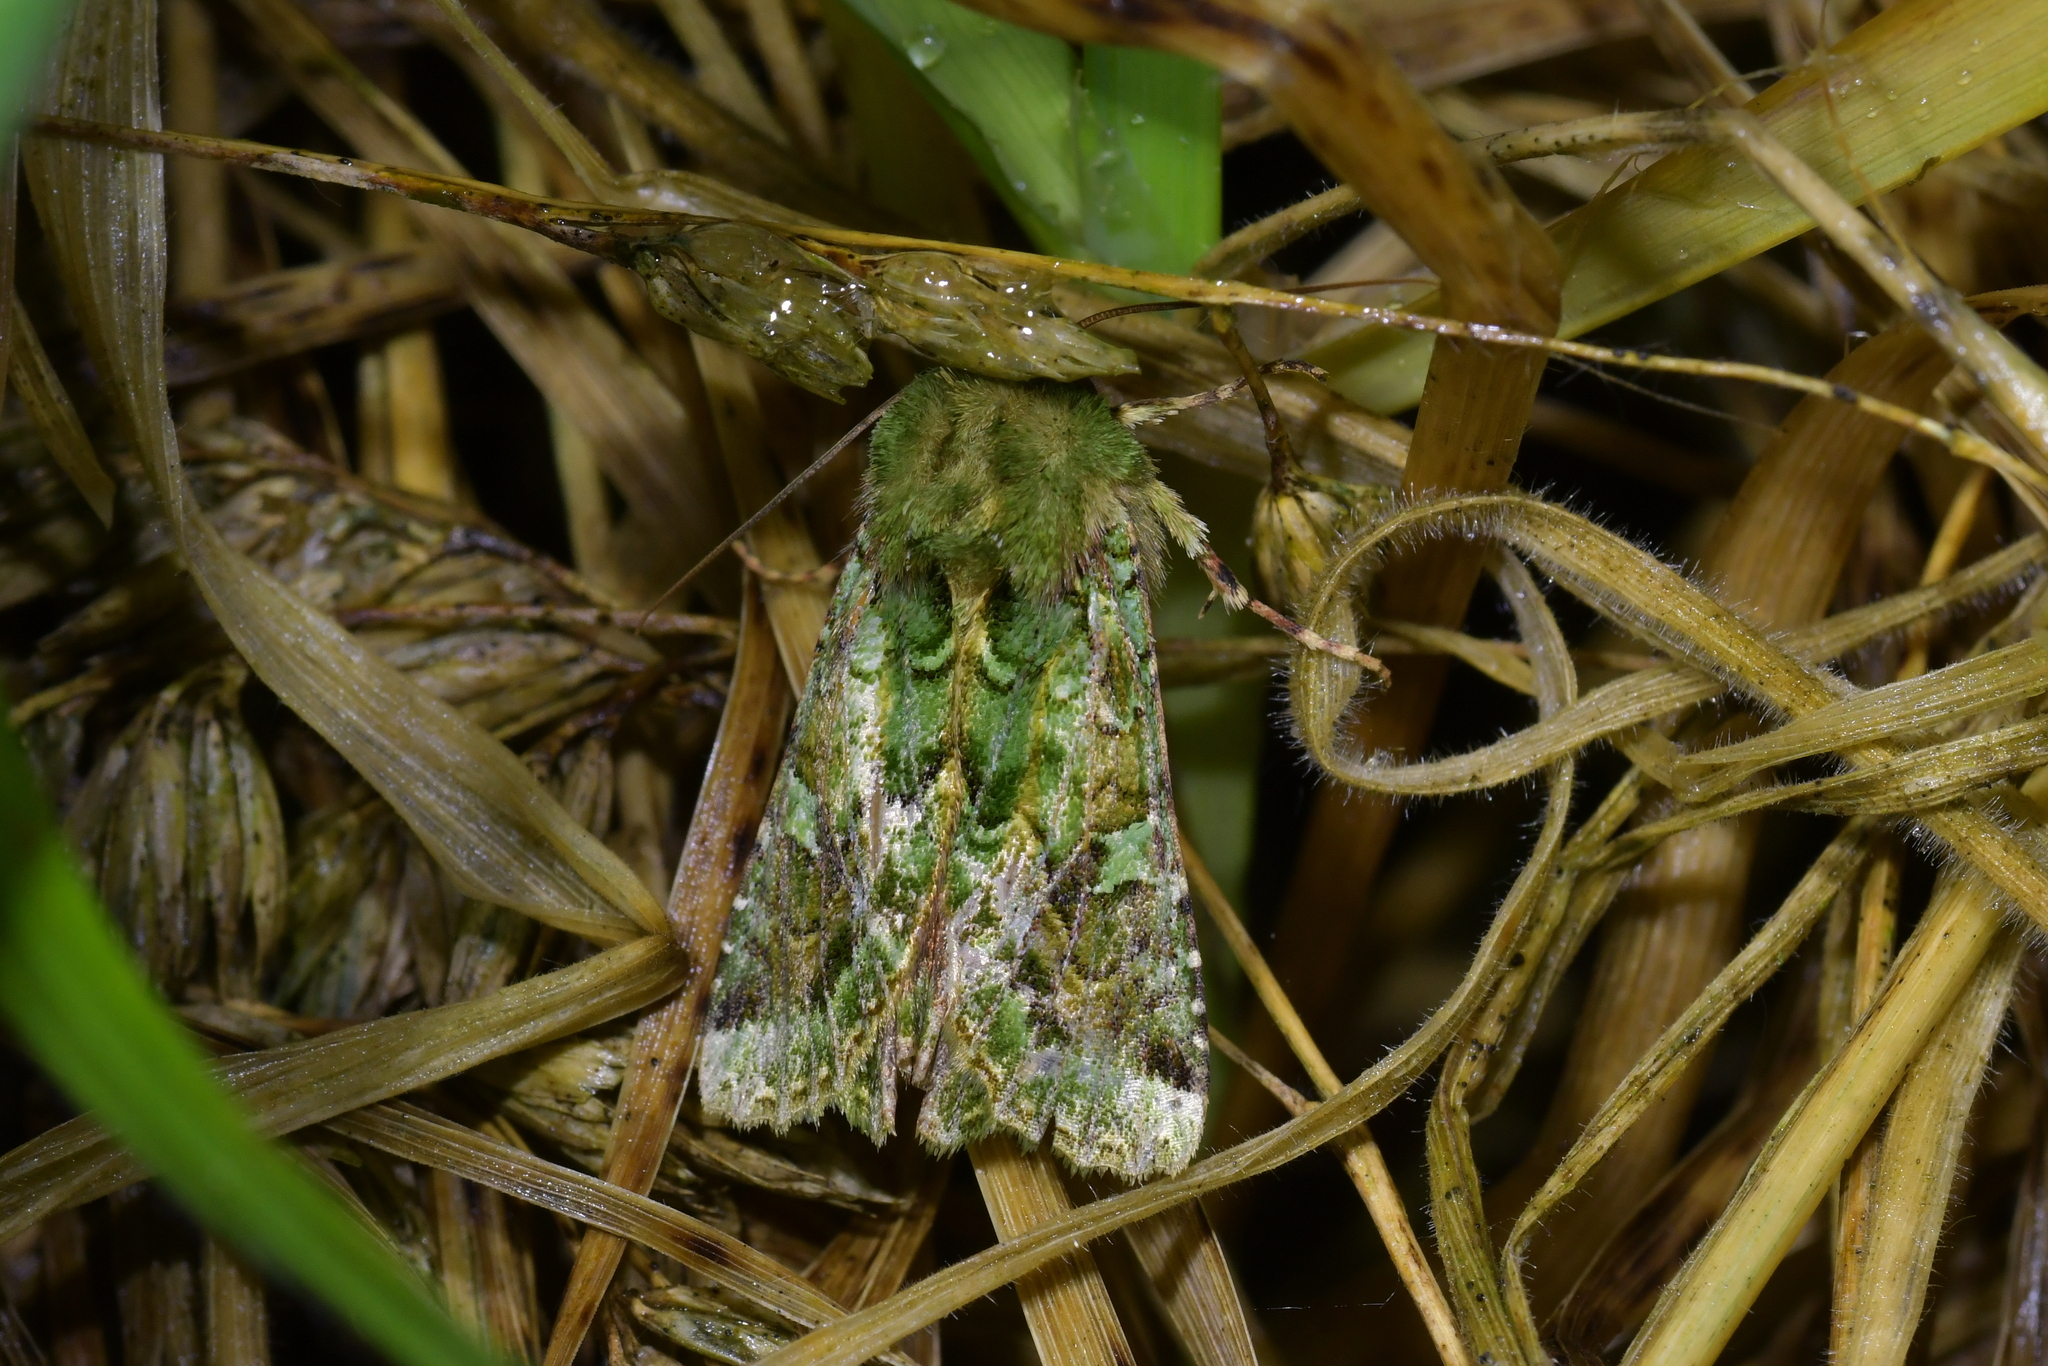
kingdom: Animalia
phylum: Arthropoda
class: Insecta
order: Lepidoptera
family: Noctuidae
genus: Feredayia
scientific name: Feredayia grammosa
